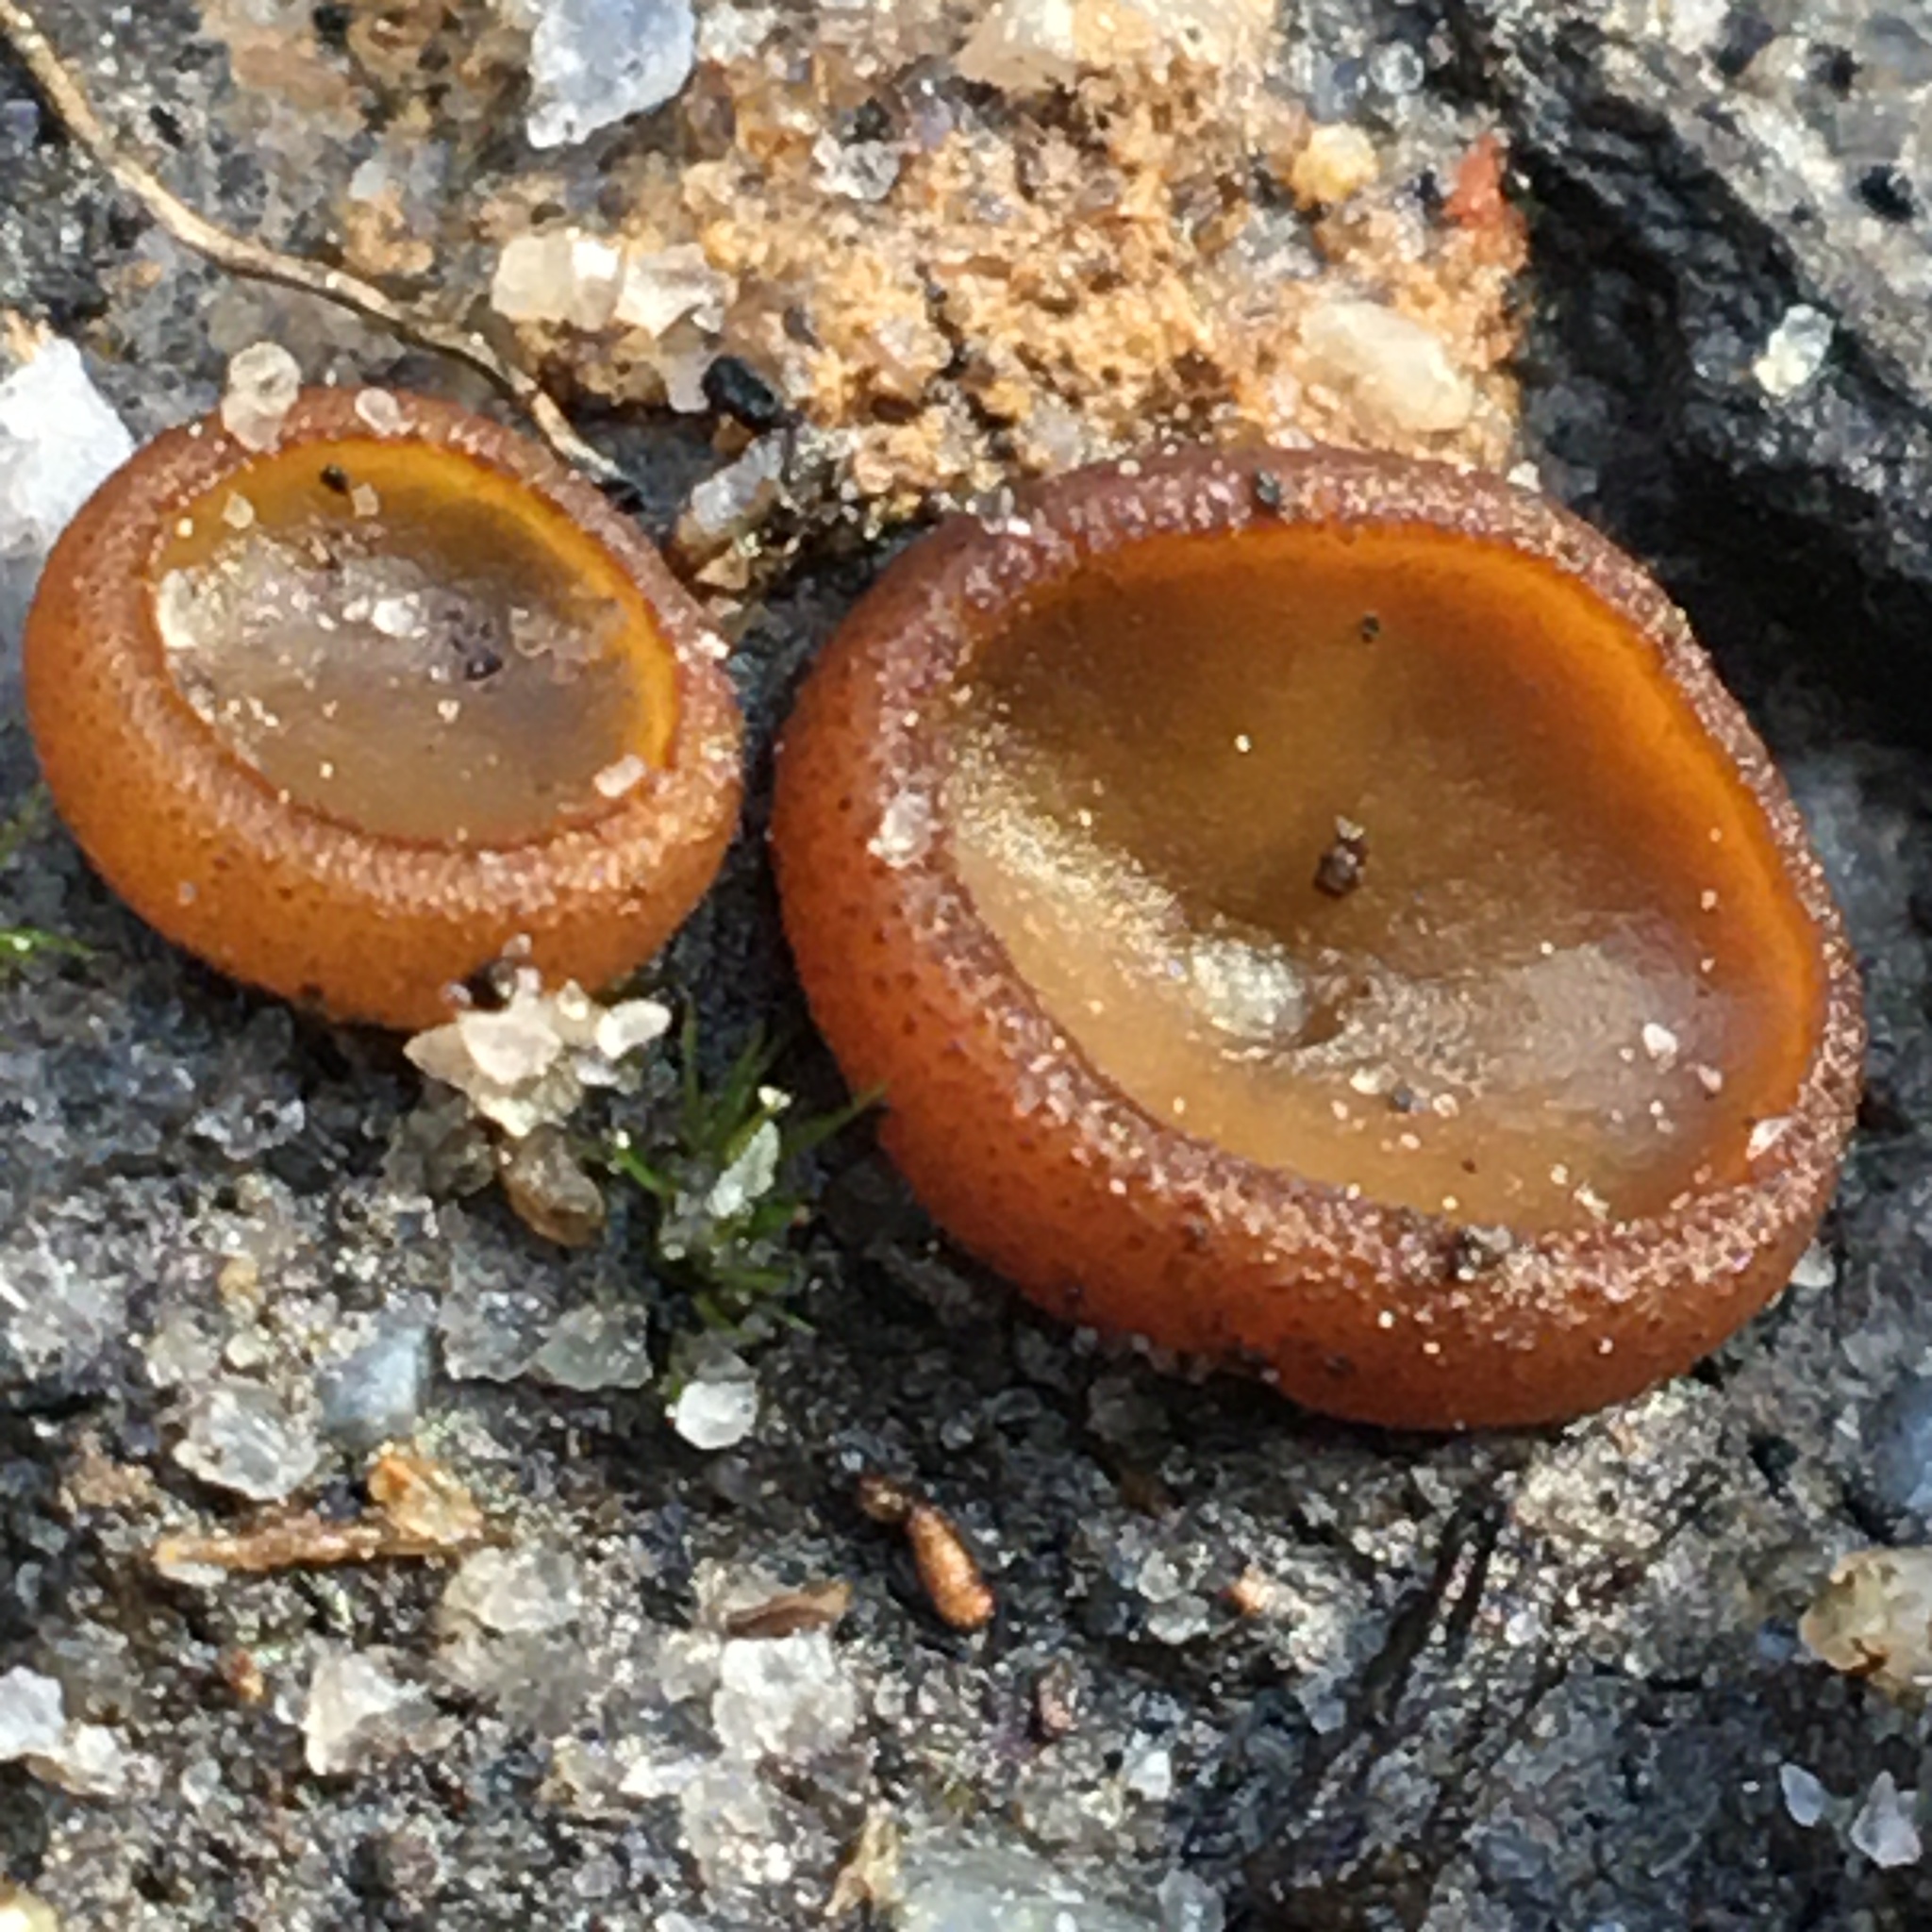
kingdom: Fungi
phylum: Ascomycota
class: Pezizomycetes
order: Pezizales
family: Pyronemataceae
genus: Aleurina
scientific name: Aleurina ferruginea
